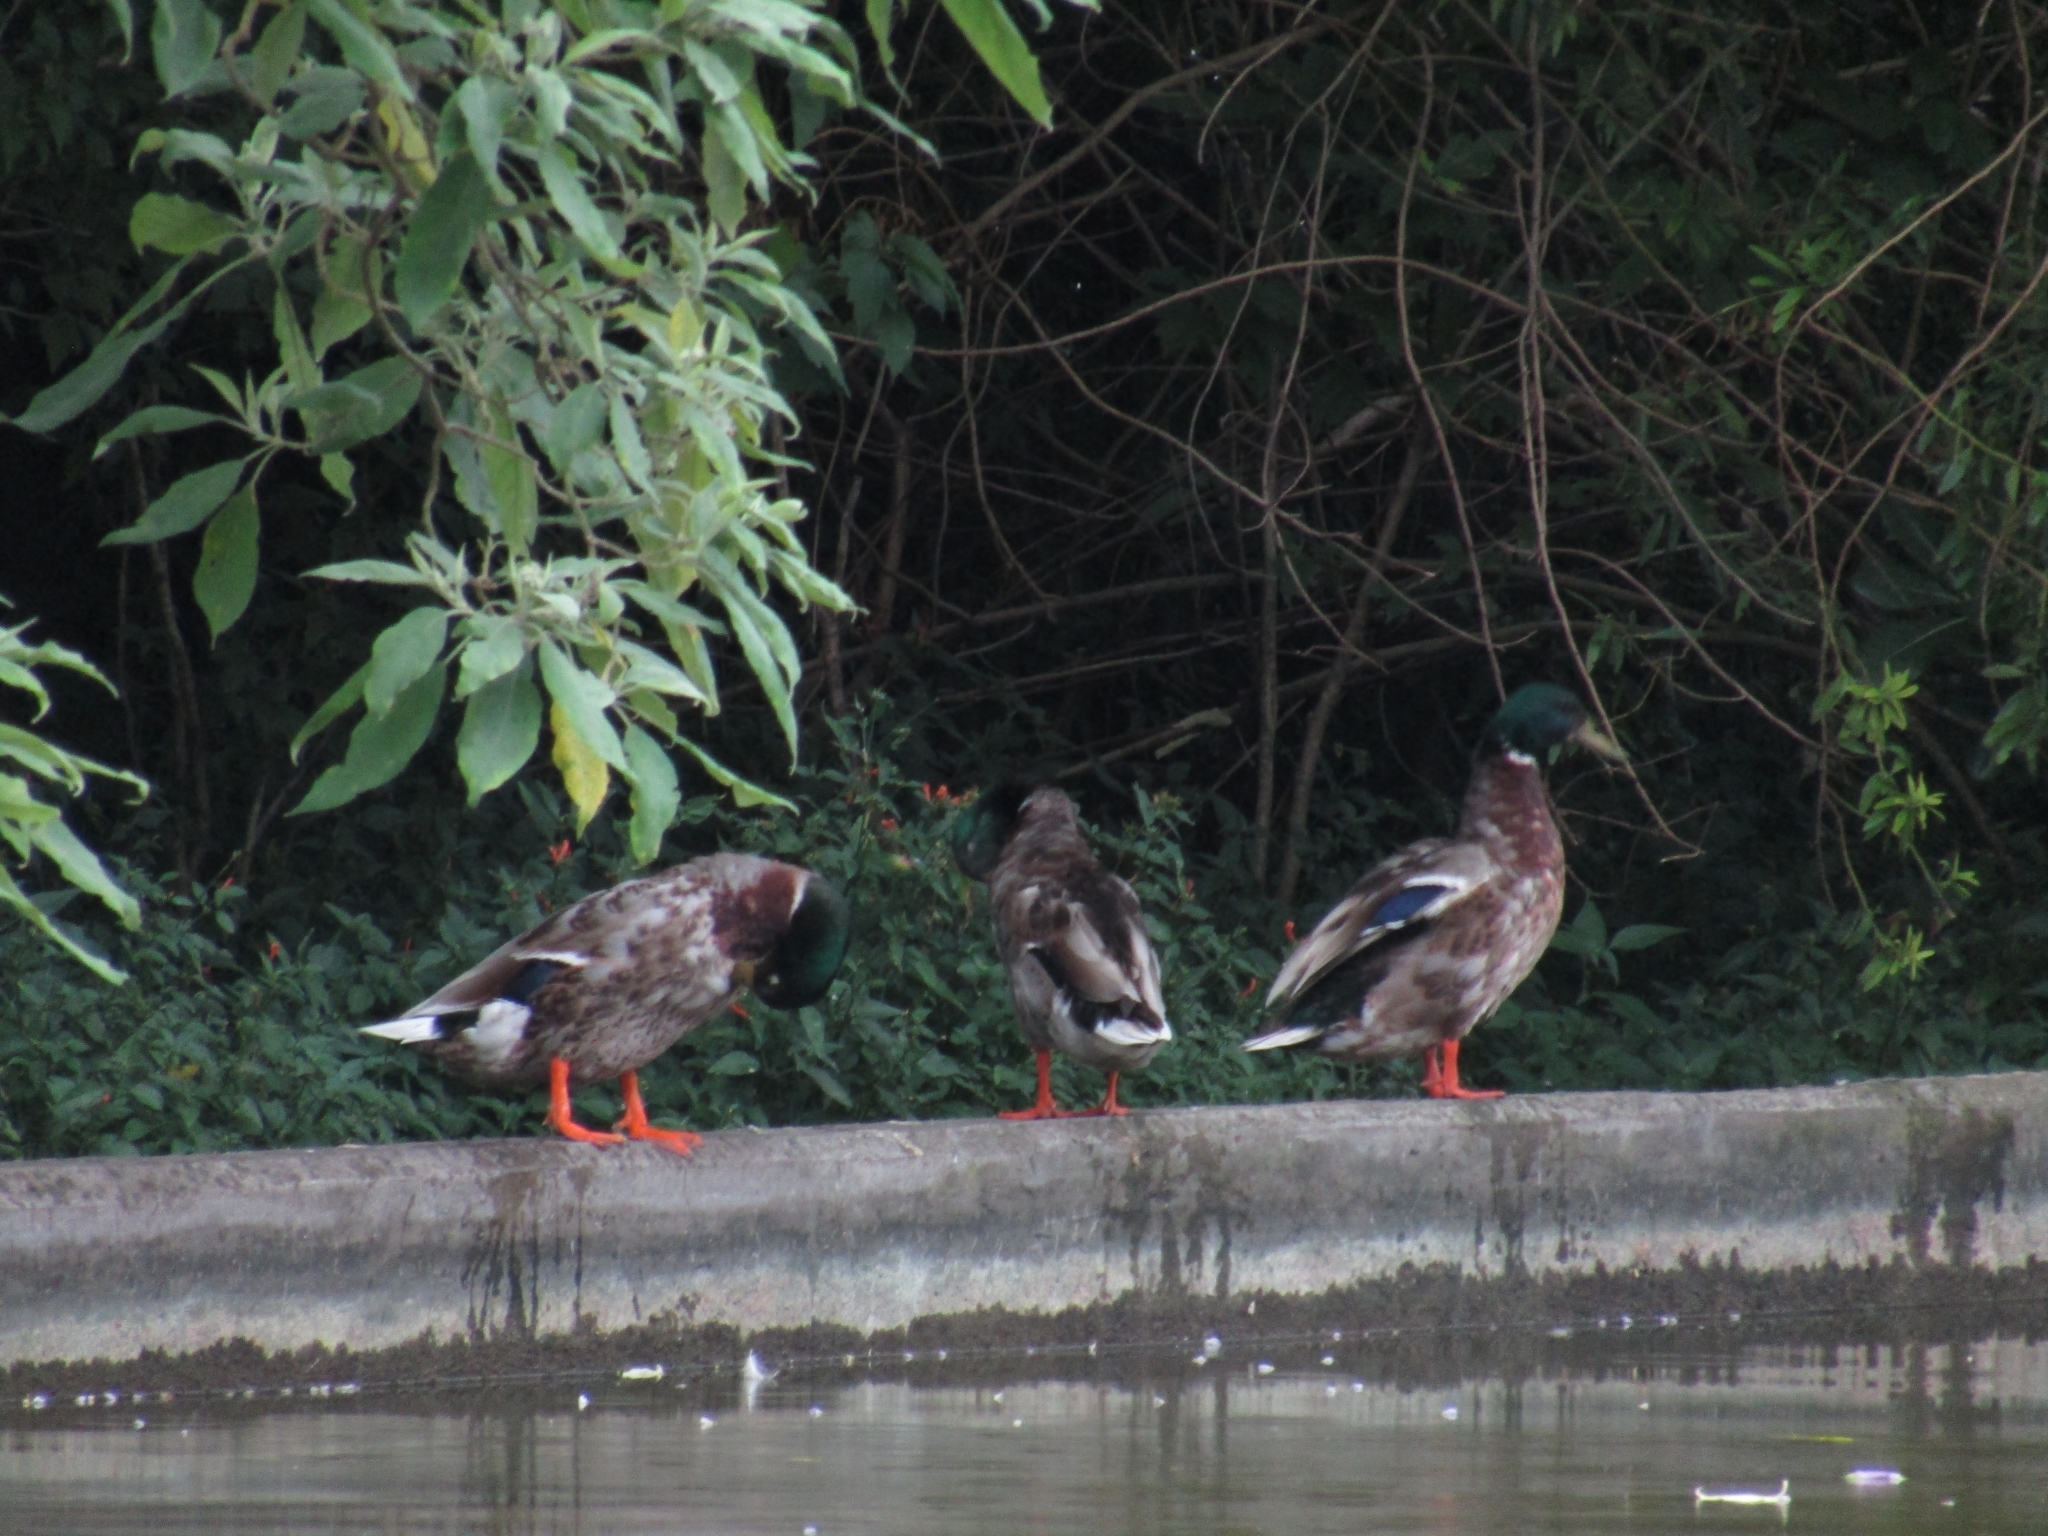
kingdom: Animalia
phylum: Chordata
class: Aves
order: Anseriformes
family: Anatidae
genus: Anas
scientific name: Anas platyrhynchos
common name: Mallard
